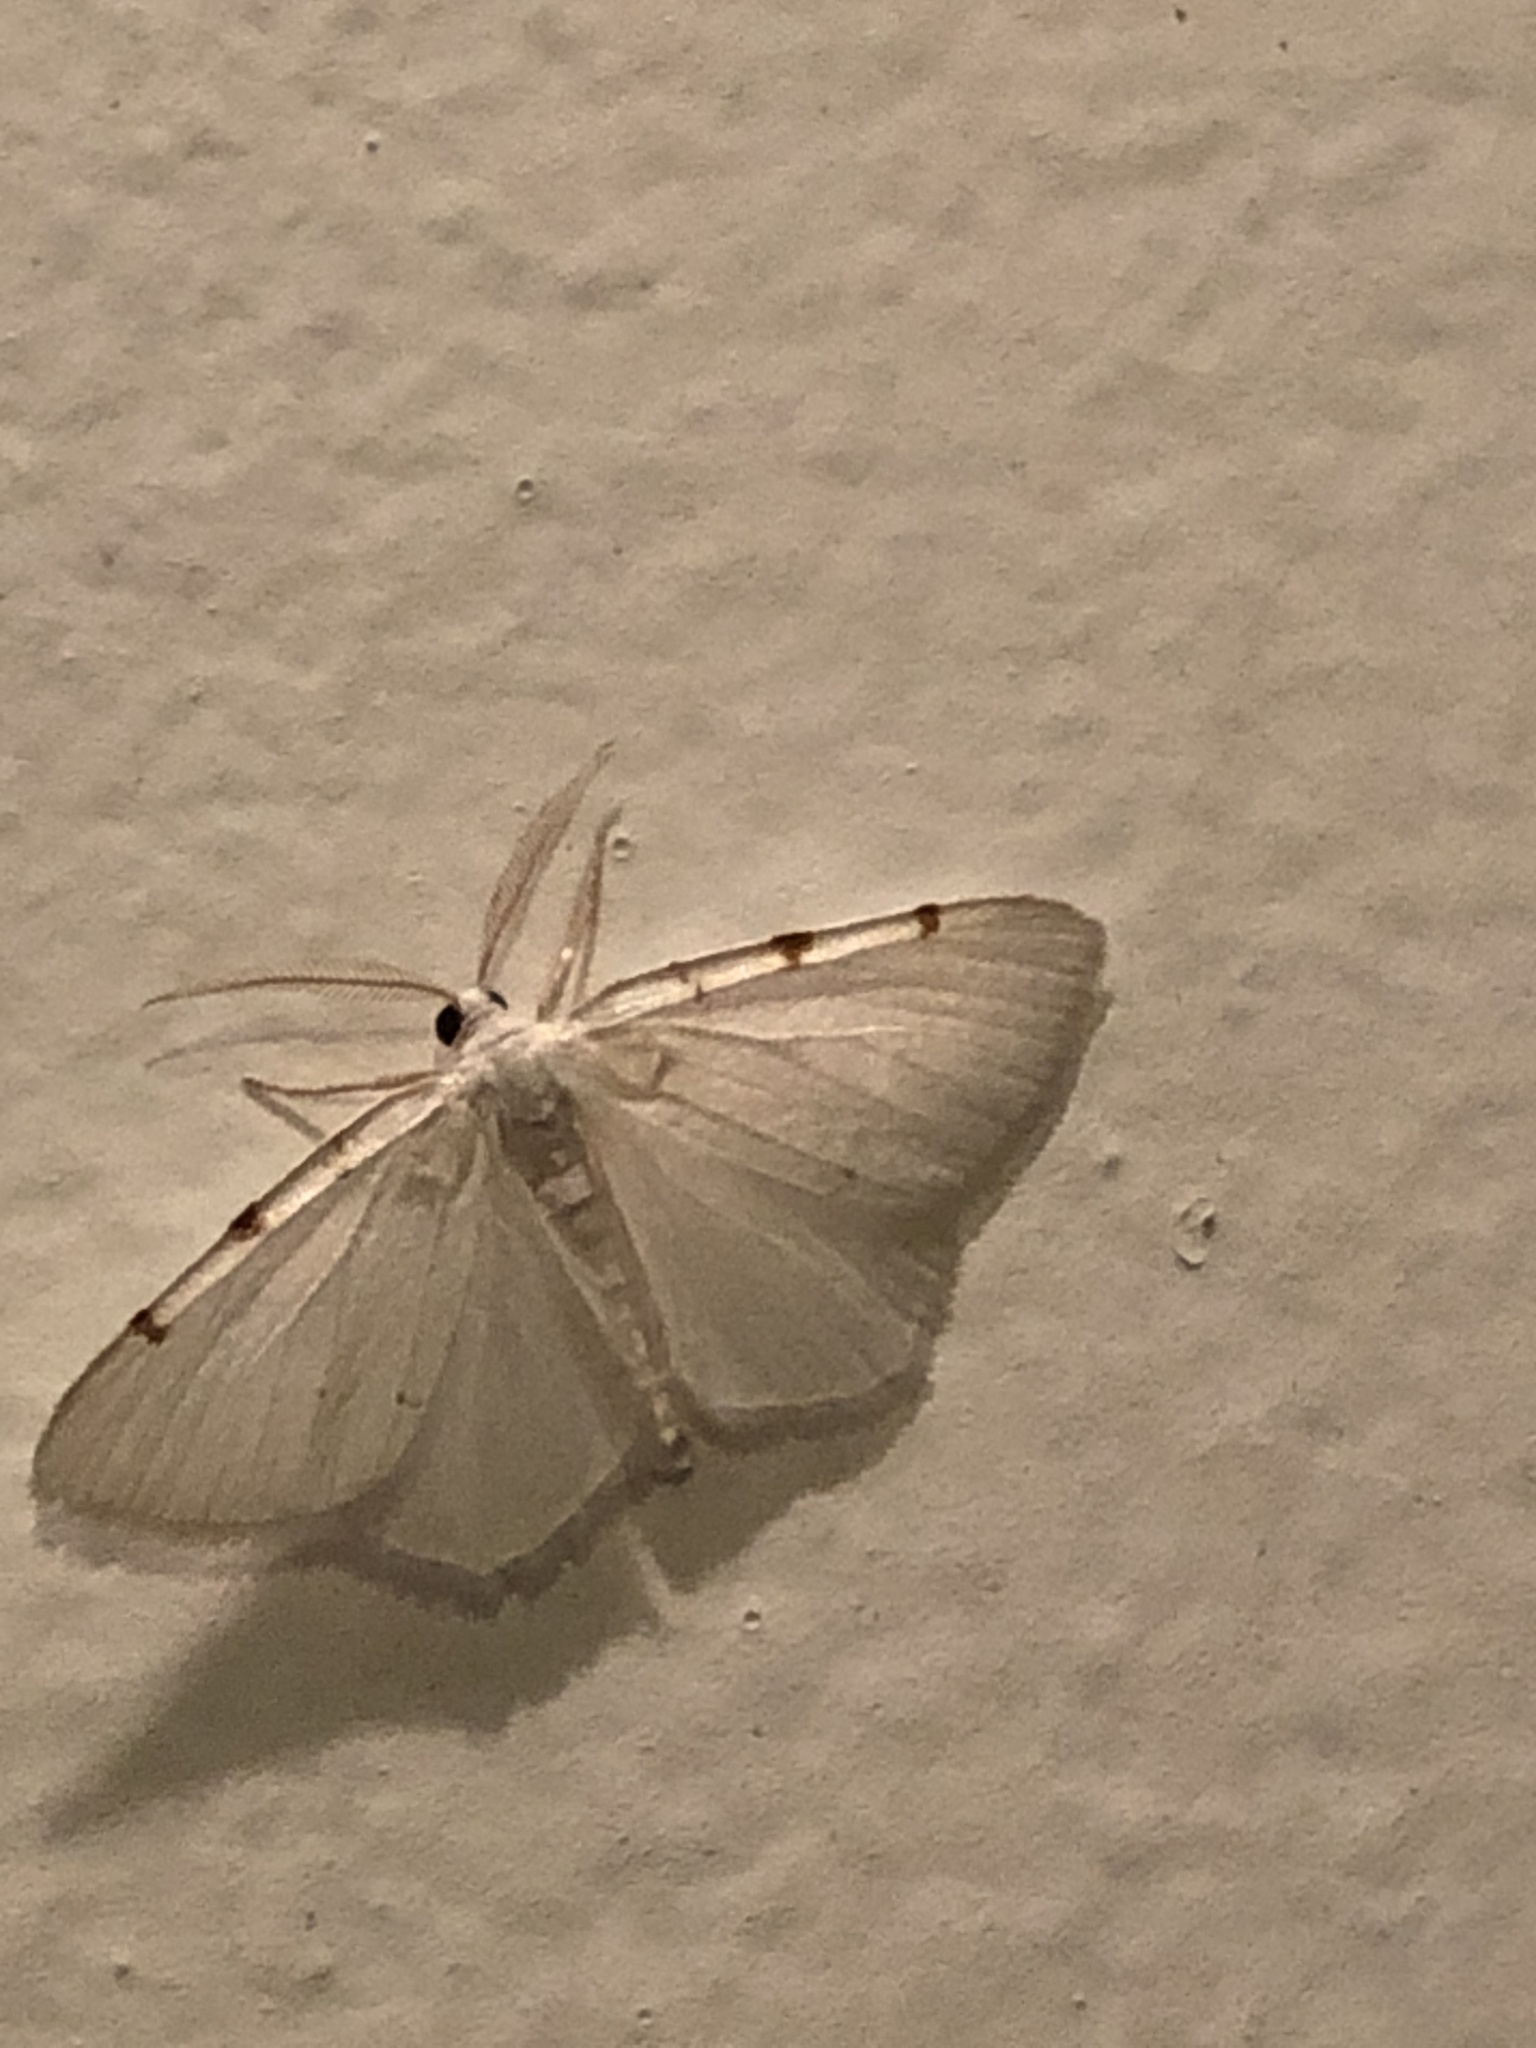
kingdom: Animalia
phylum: Arthropoda
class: Insecta
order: Lepidoptera
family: Geometridae
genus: Macaria
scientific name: Macaria pustularia
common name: Lesser maple spanworm moth
